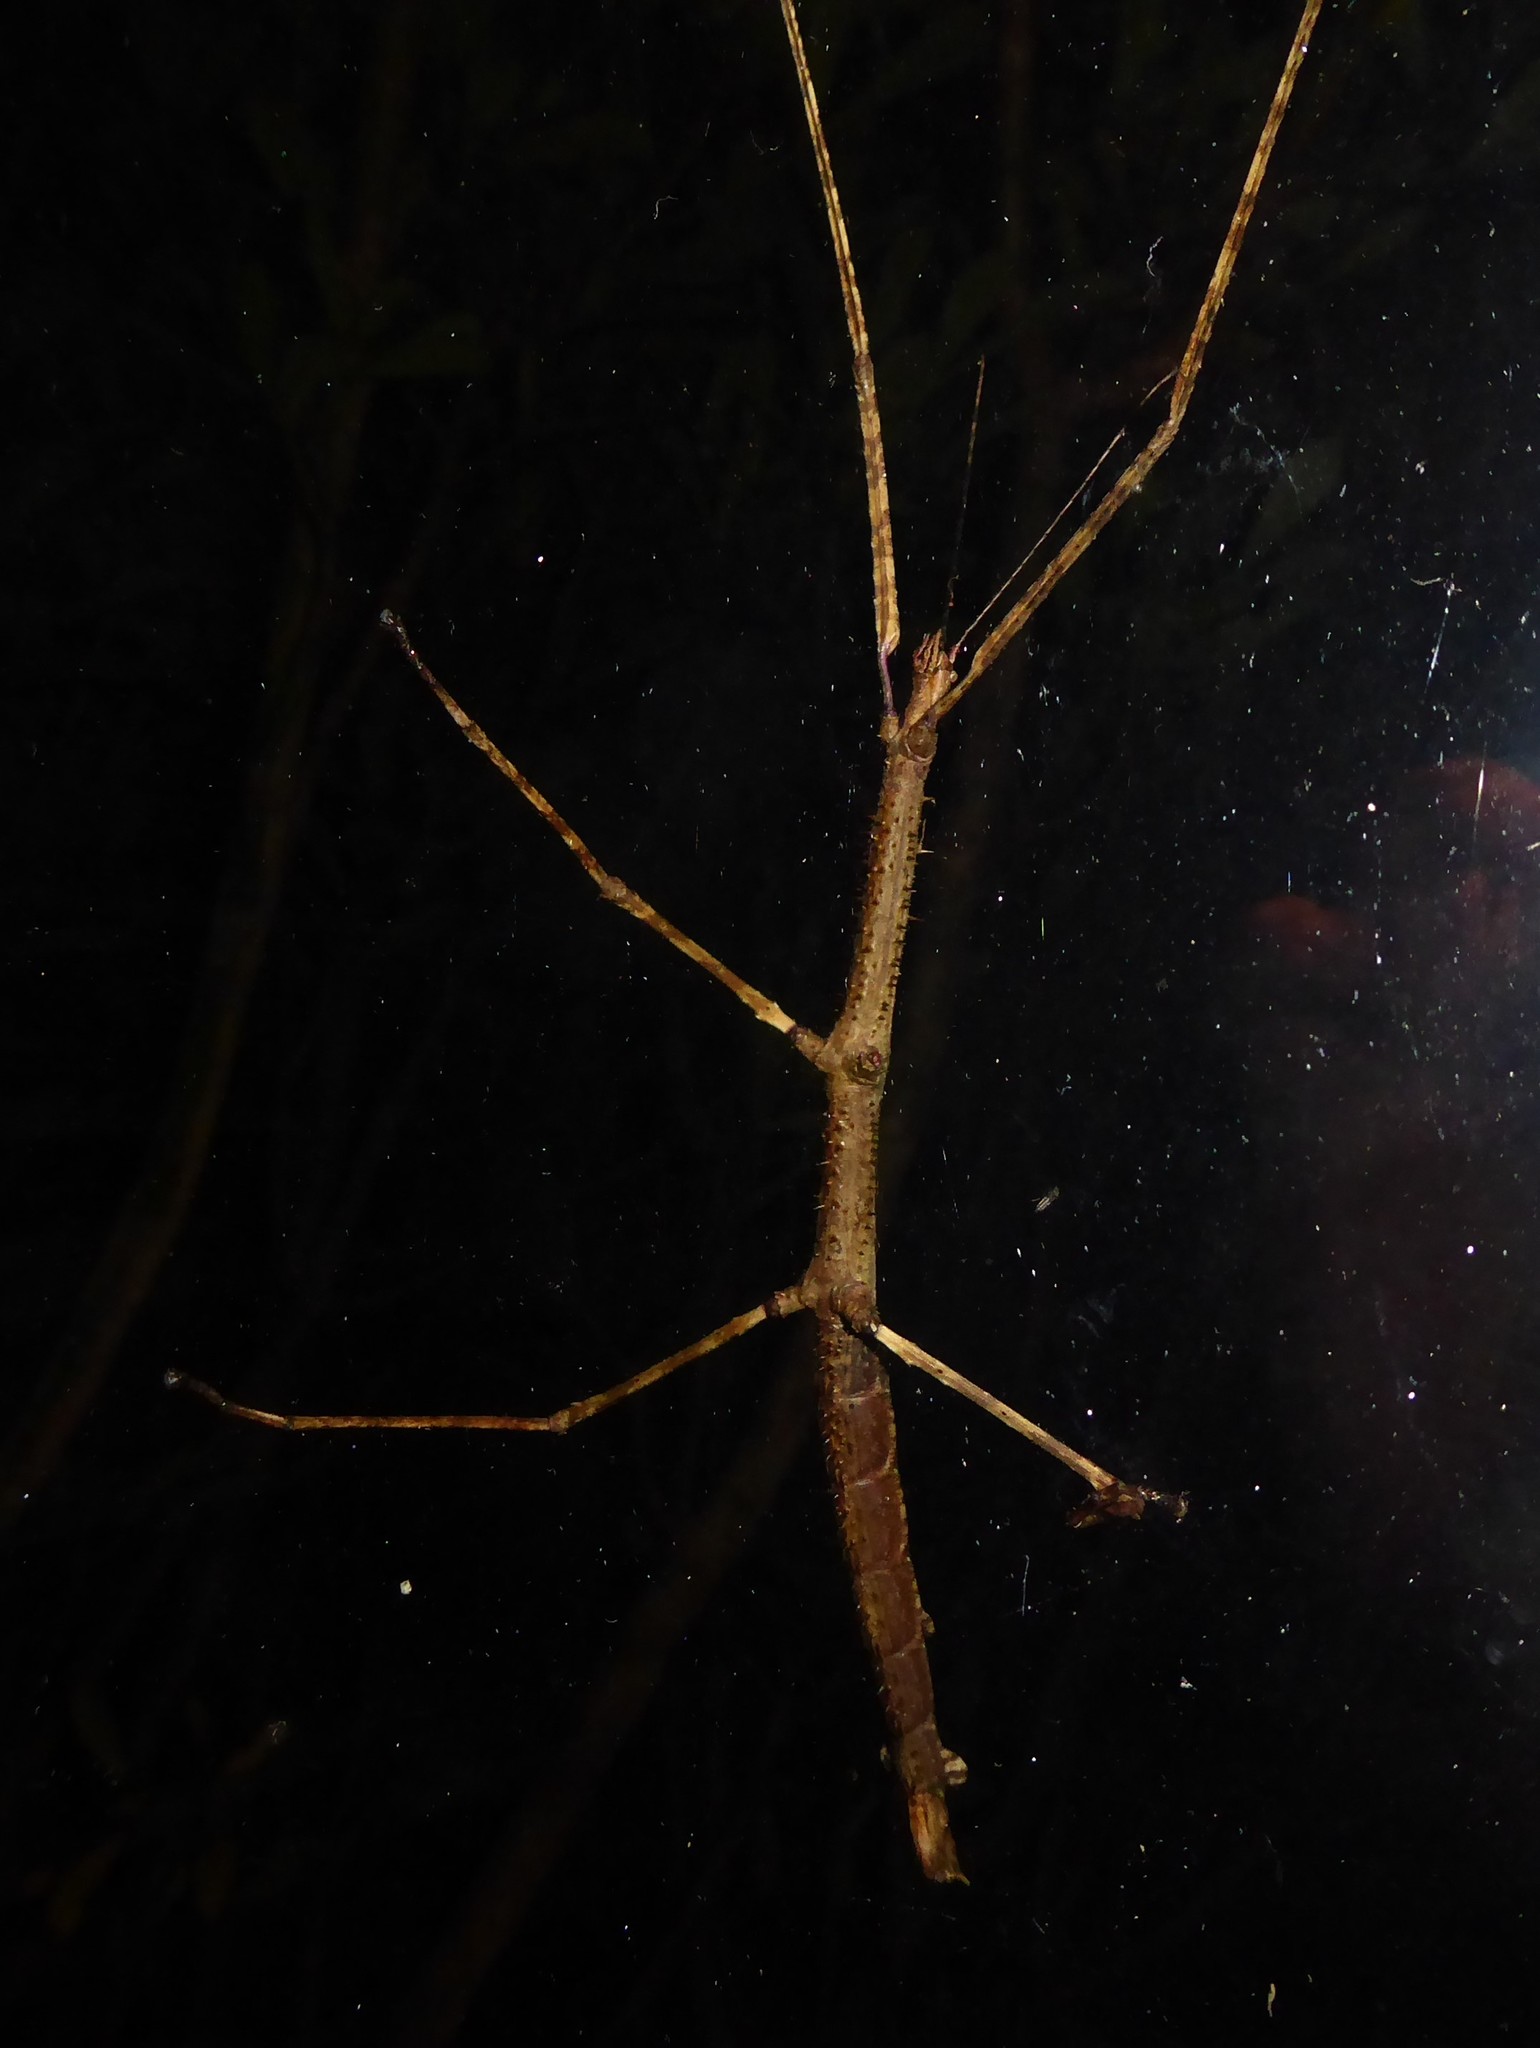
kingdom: Animalia
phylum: Arthropoda
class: Insecta
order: Phasmida
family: Phasmatidae
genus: Argosarchus
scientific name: Argosarchus horridus
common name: Bristly stick insect
